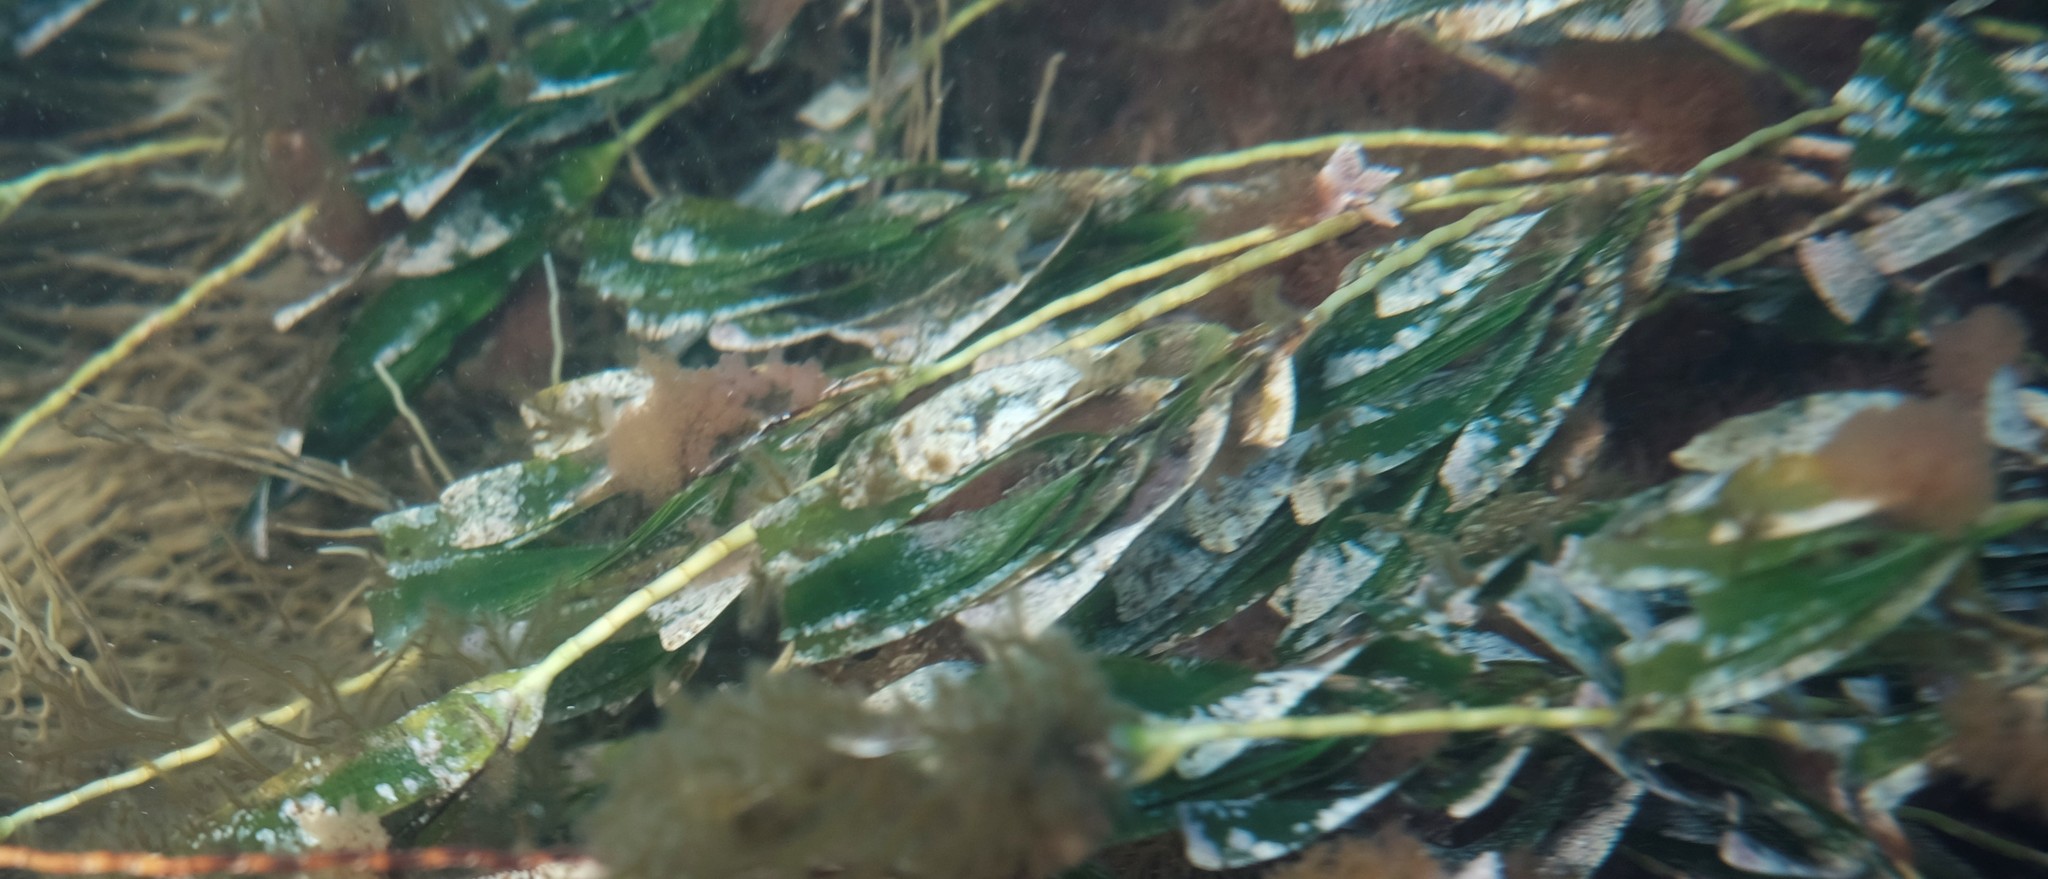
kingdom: Plantae
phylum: Tracheophyta
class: Liliopsida
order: Alismatales
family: Cymodoceaceae
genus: Amphibolis
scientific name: Amphibolis antarctica
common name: Species code: aa
